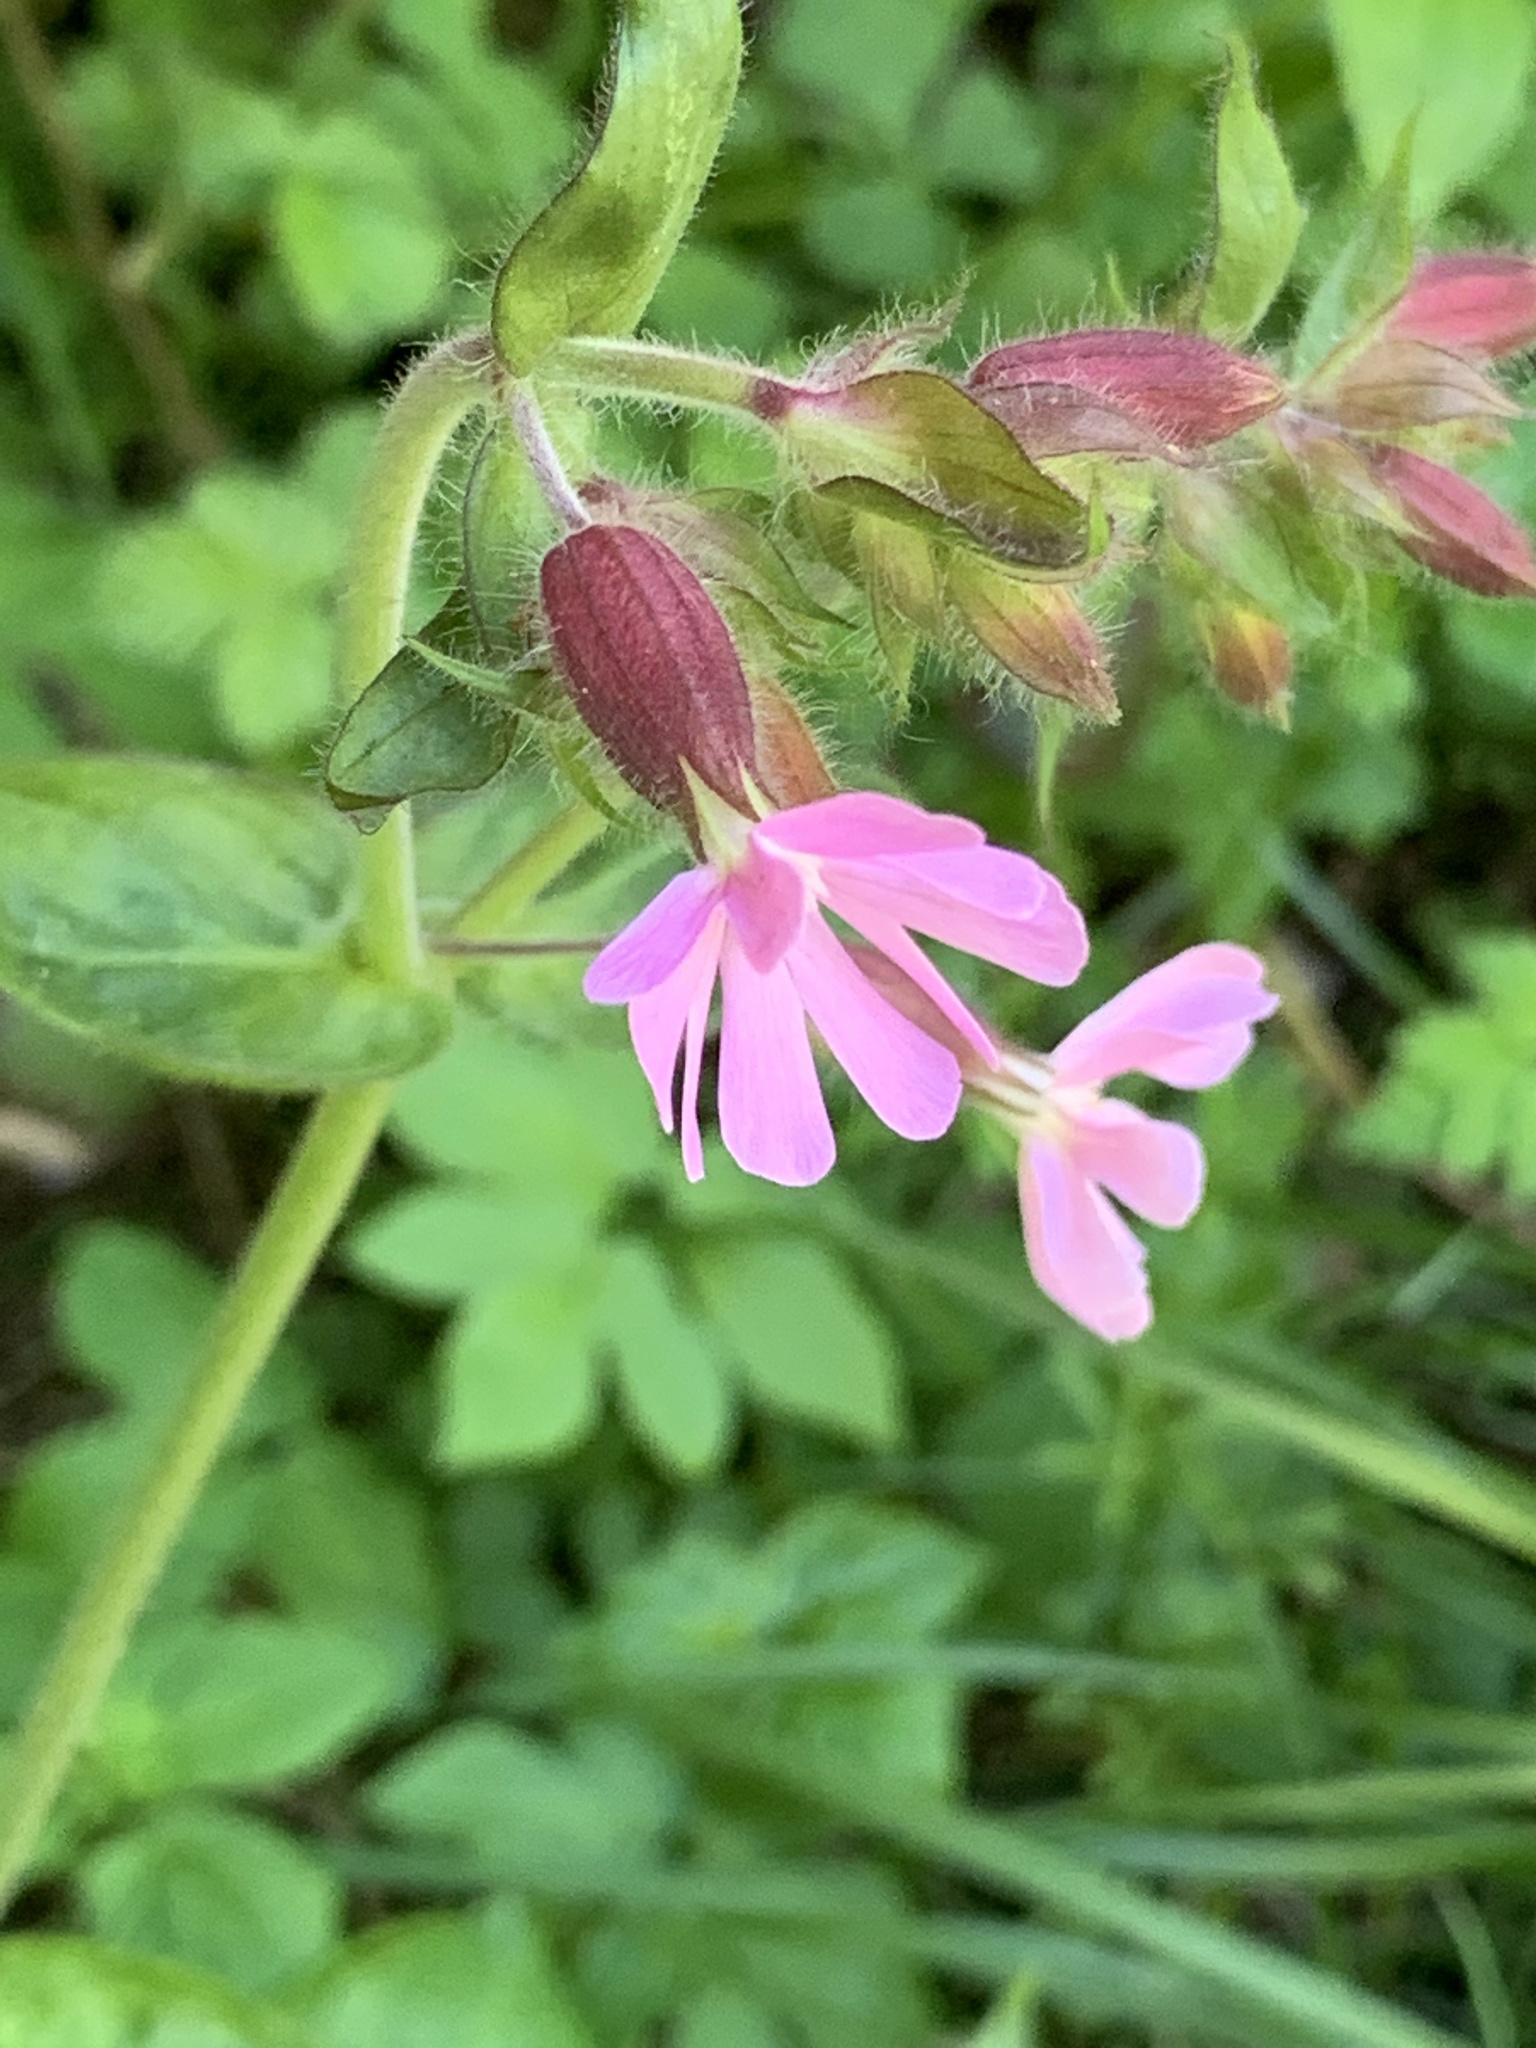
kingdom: Plantae
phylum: Tracheophyta
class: Magnoliopsida
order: Caryophyllales
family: Caryophyllaceae
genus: Silene
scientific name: Silene dioica
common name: Red campion
